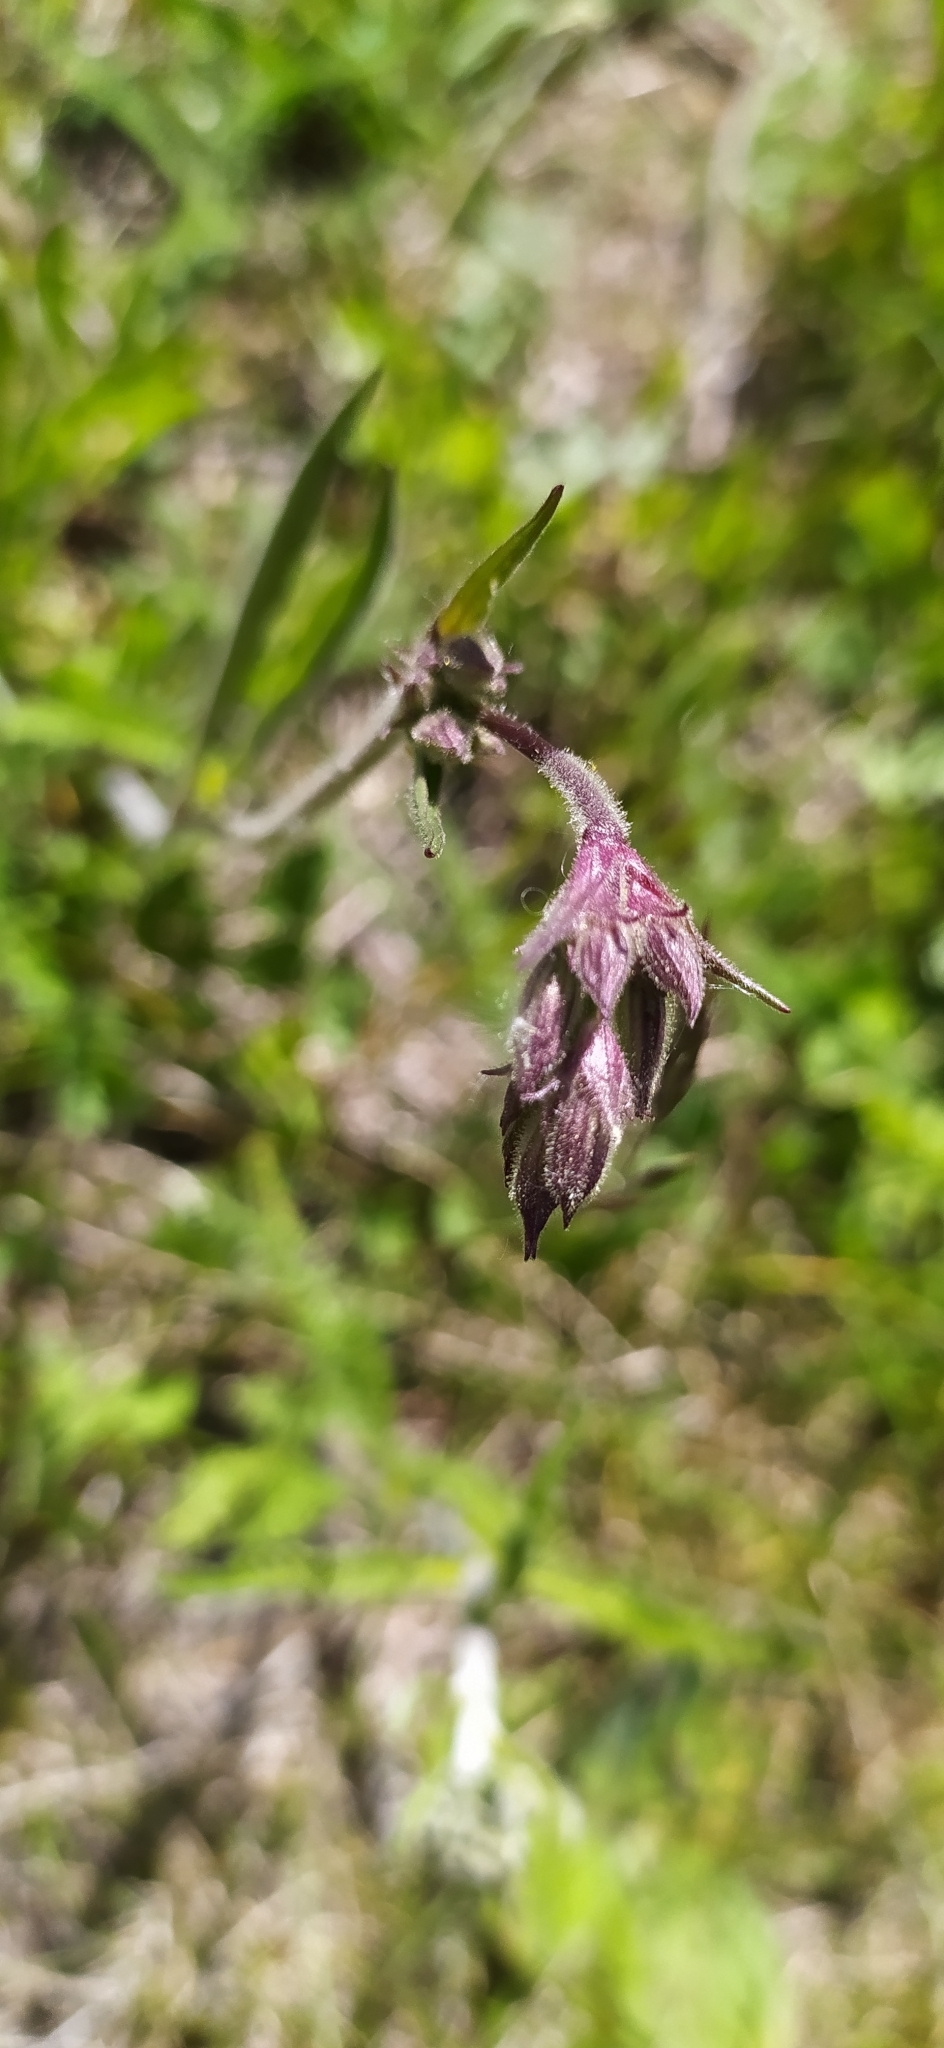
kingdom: Plantae
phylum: Tracheophyta
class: Magnoliopsida
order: Caryophyllales
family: Caryophyllaceae
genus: Silene
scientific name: Silene nutans
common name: Nottingham catchfly
